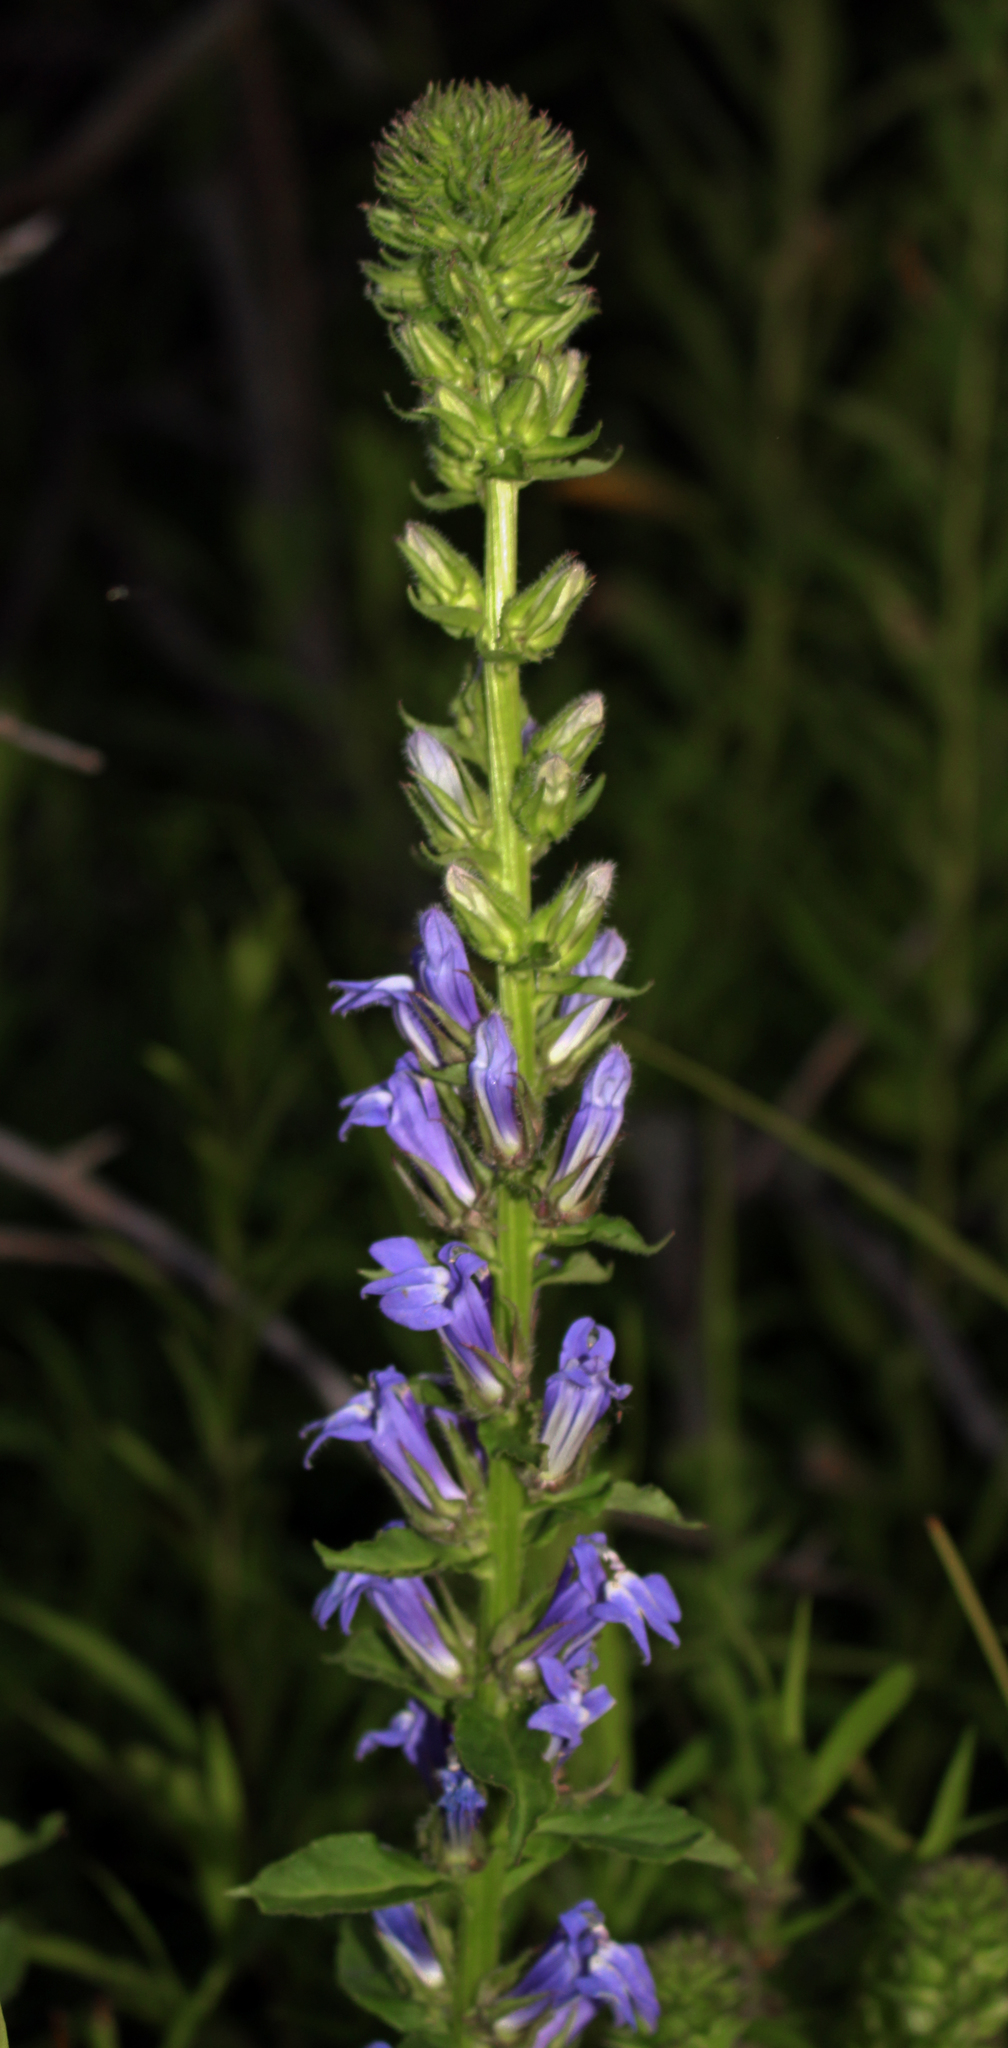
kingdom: Plantae
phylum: Tracheophyta
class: Magnoliopsida
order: Asterales
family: Campanulaceae
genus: Lobelia
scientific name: Lobelia siphilitica
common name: Great lobelia
